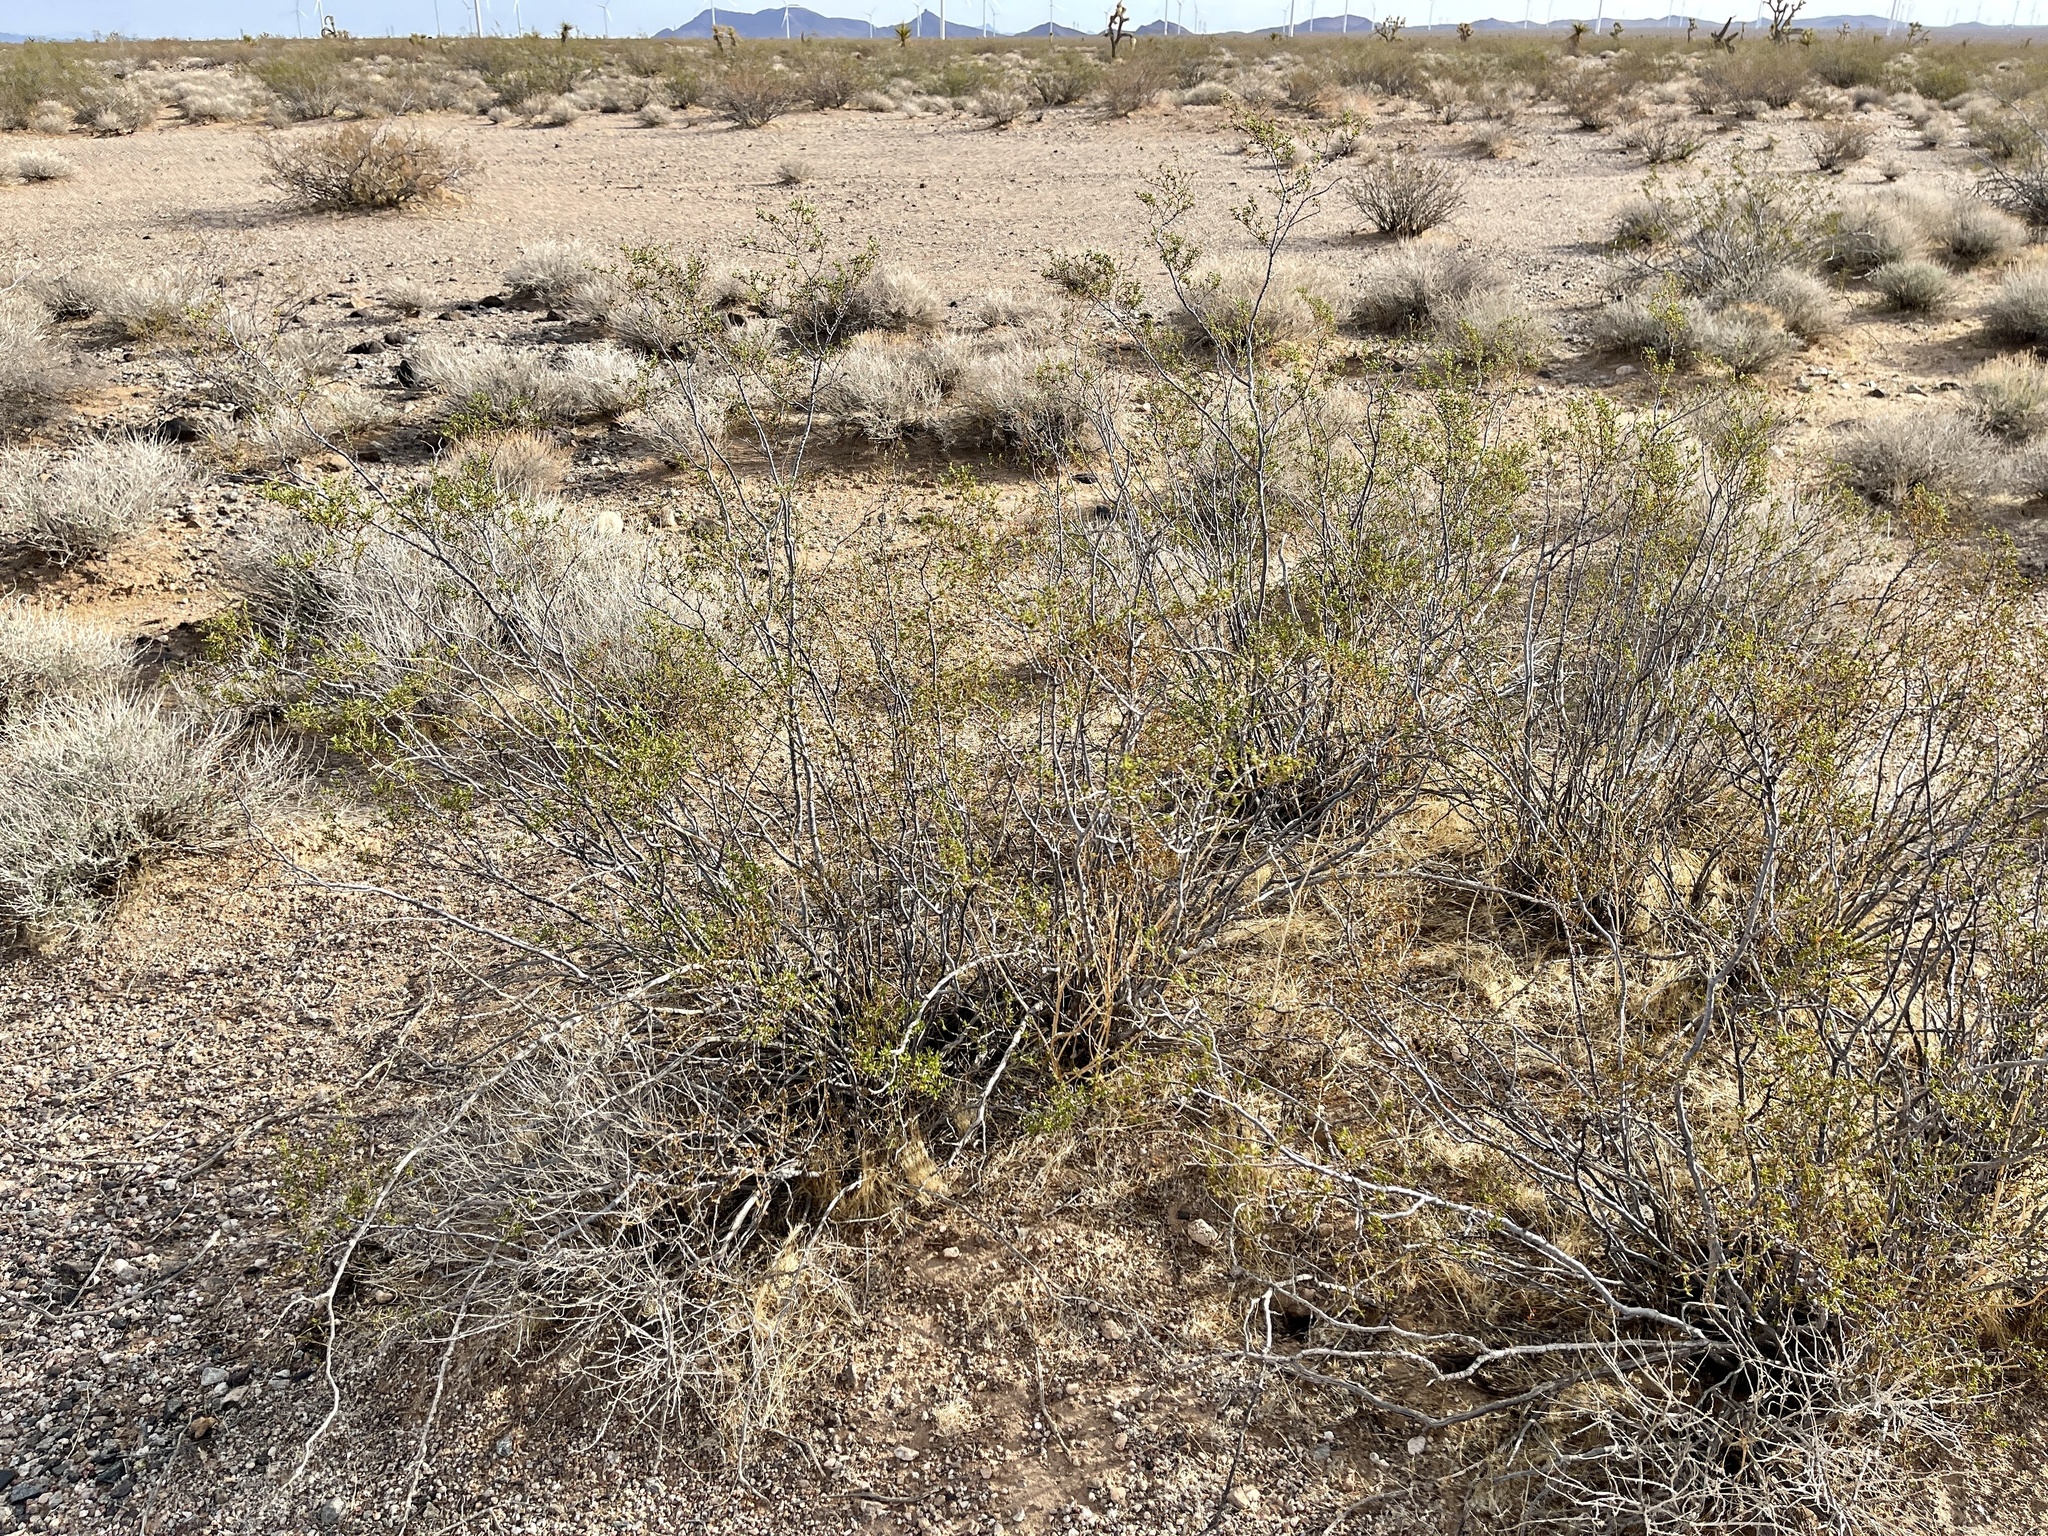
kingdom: Plantae
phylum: Tracheophyta
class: Magnoliopsida
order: Zygophyllales
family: Zygophyllaceae
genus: Larrea
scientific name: Larrea tridentata
